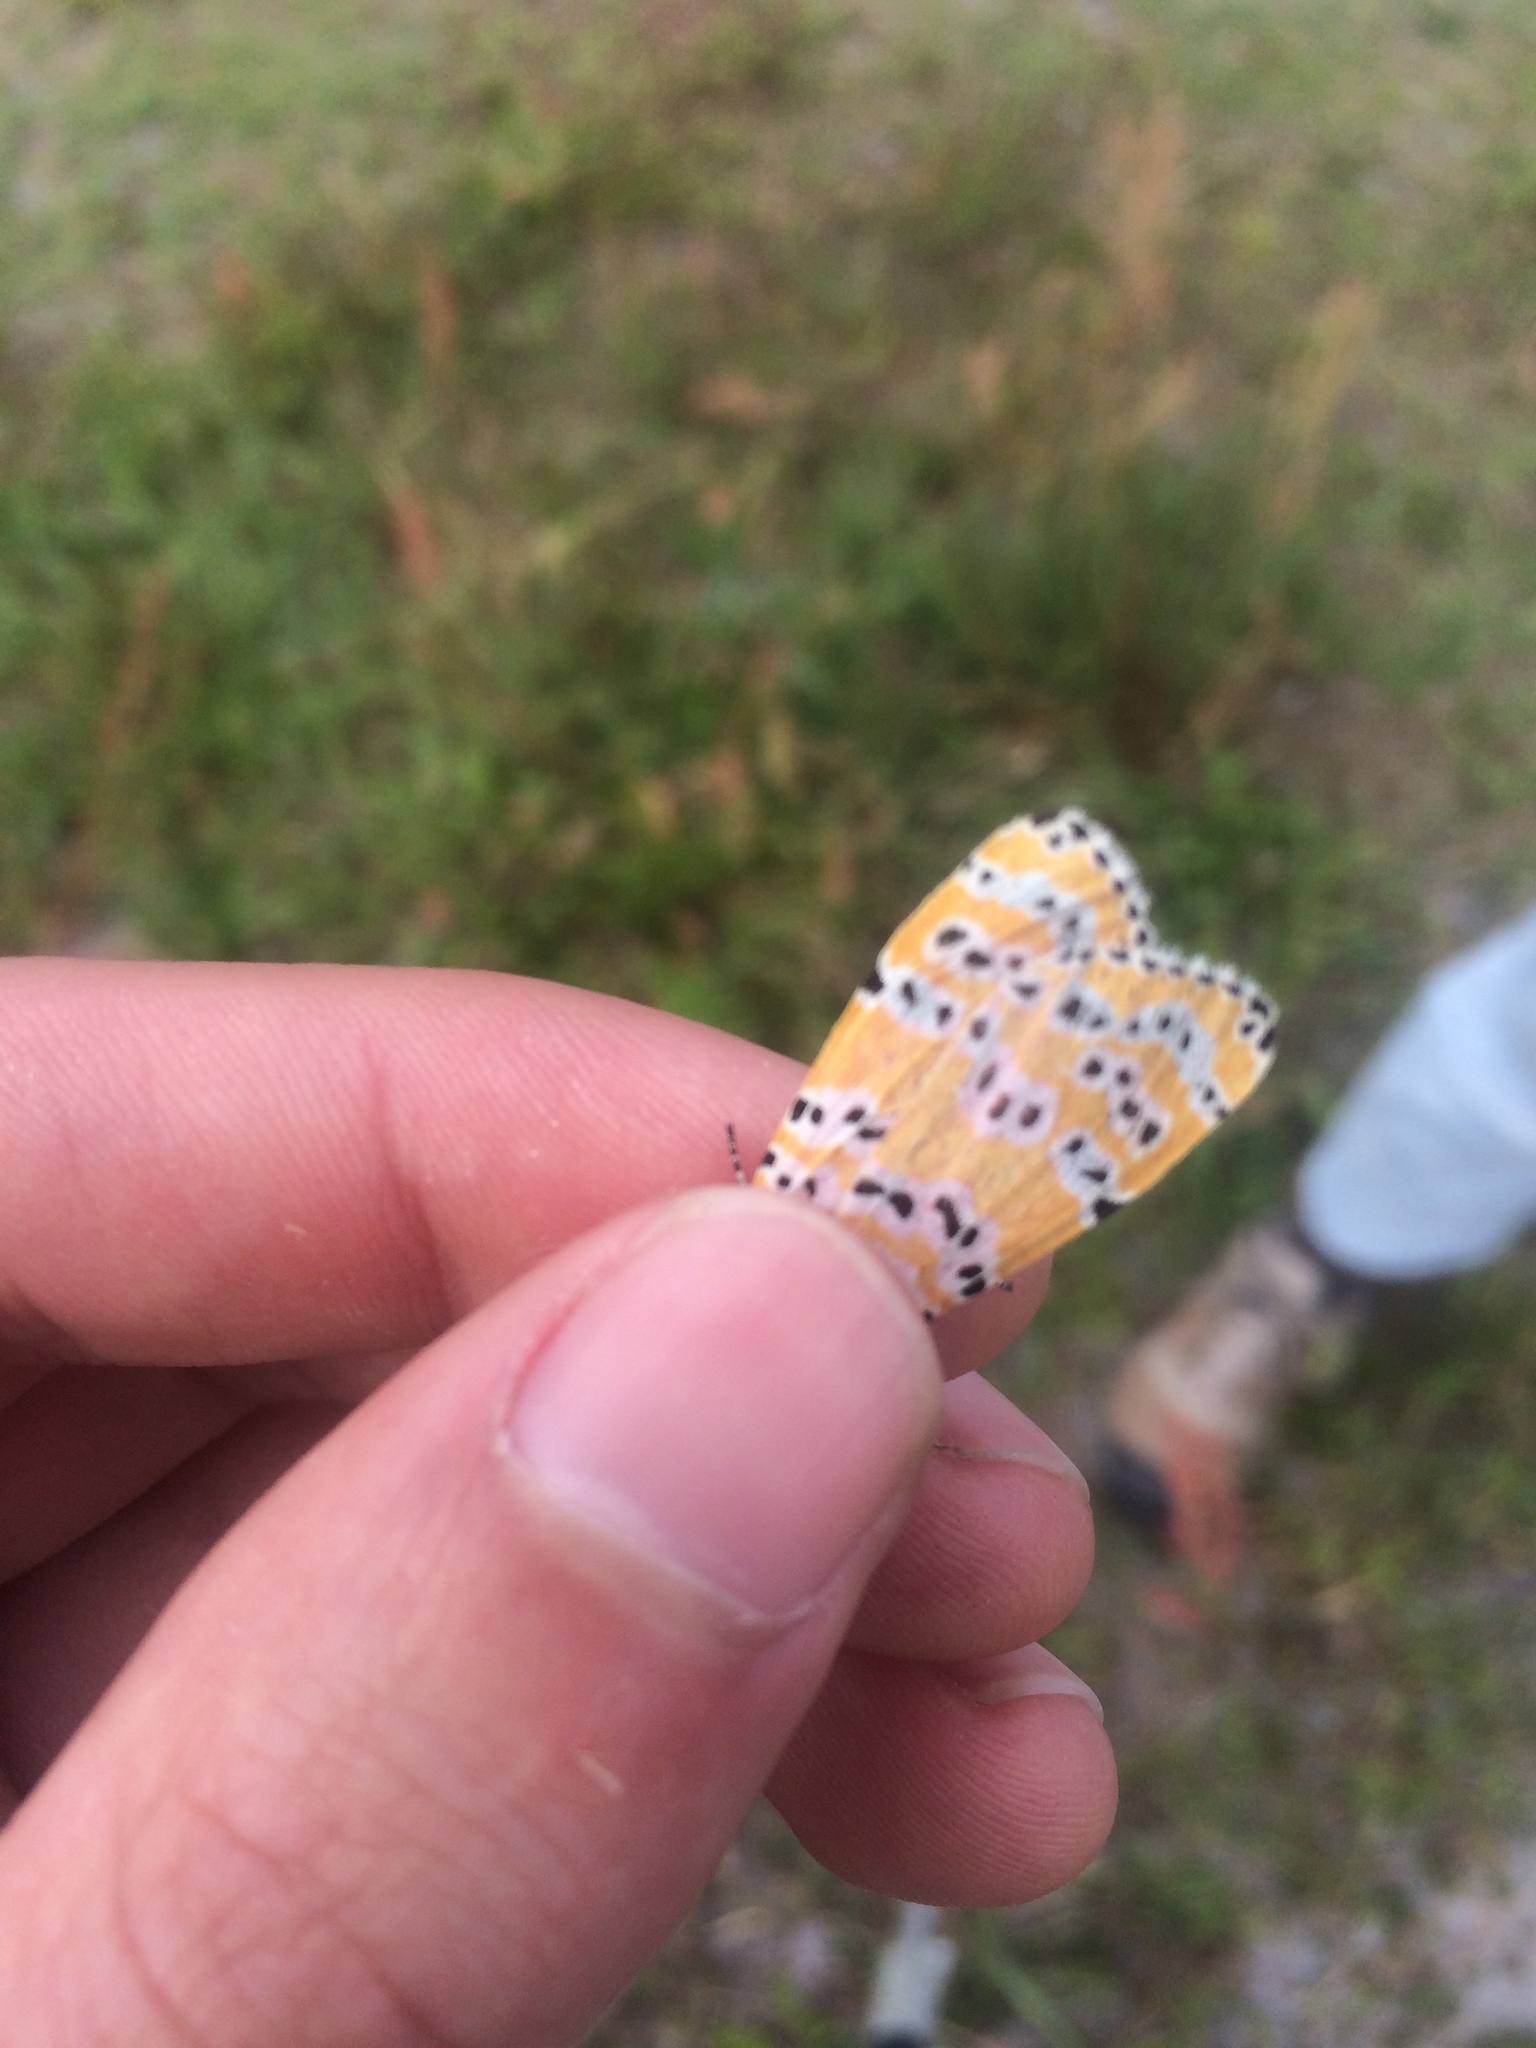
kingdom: Animalia
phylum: Arthropoda
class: Insecta
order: Lepidoptera
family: Erebidae
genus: Utetheisa
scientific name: Utetheisa ornatrix
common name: Beautiful utetheisa
